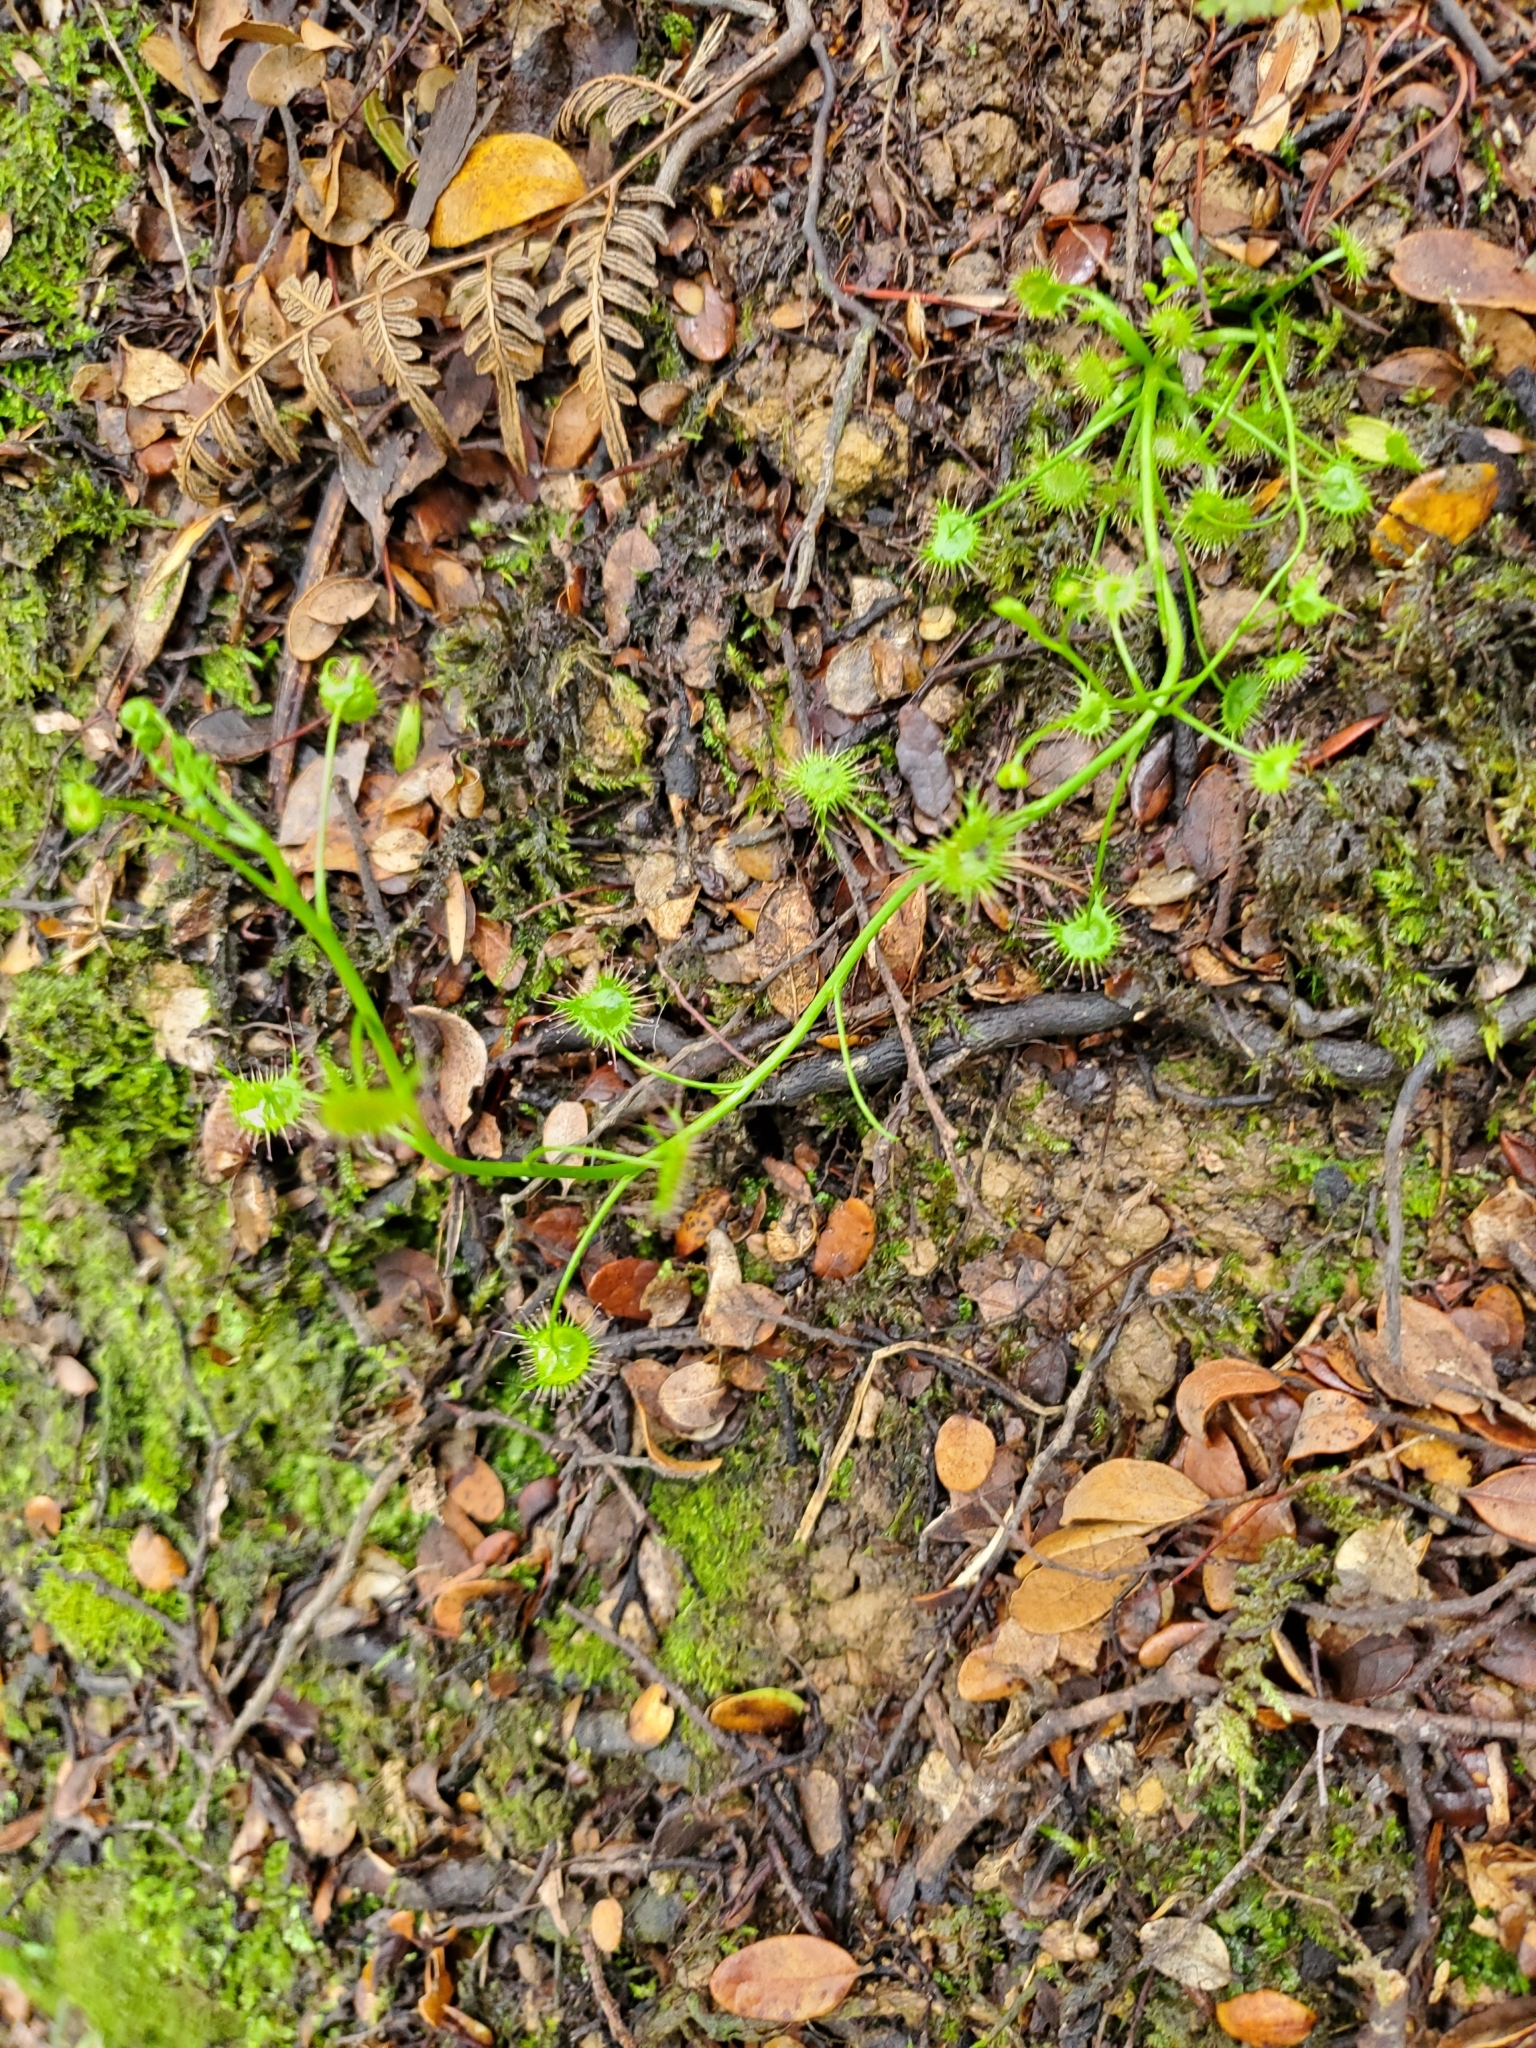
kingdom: Plantae
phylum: Tracheophyta
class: Magnoliopsida
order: Caryophyllales
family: Droseraceae
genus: Drosera
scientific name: Drosera peltata
